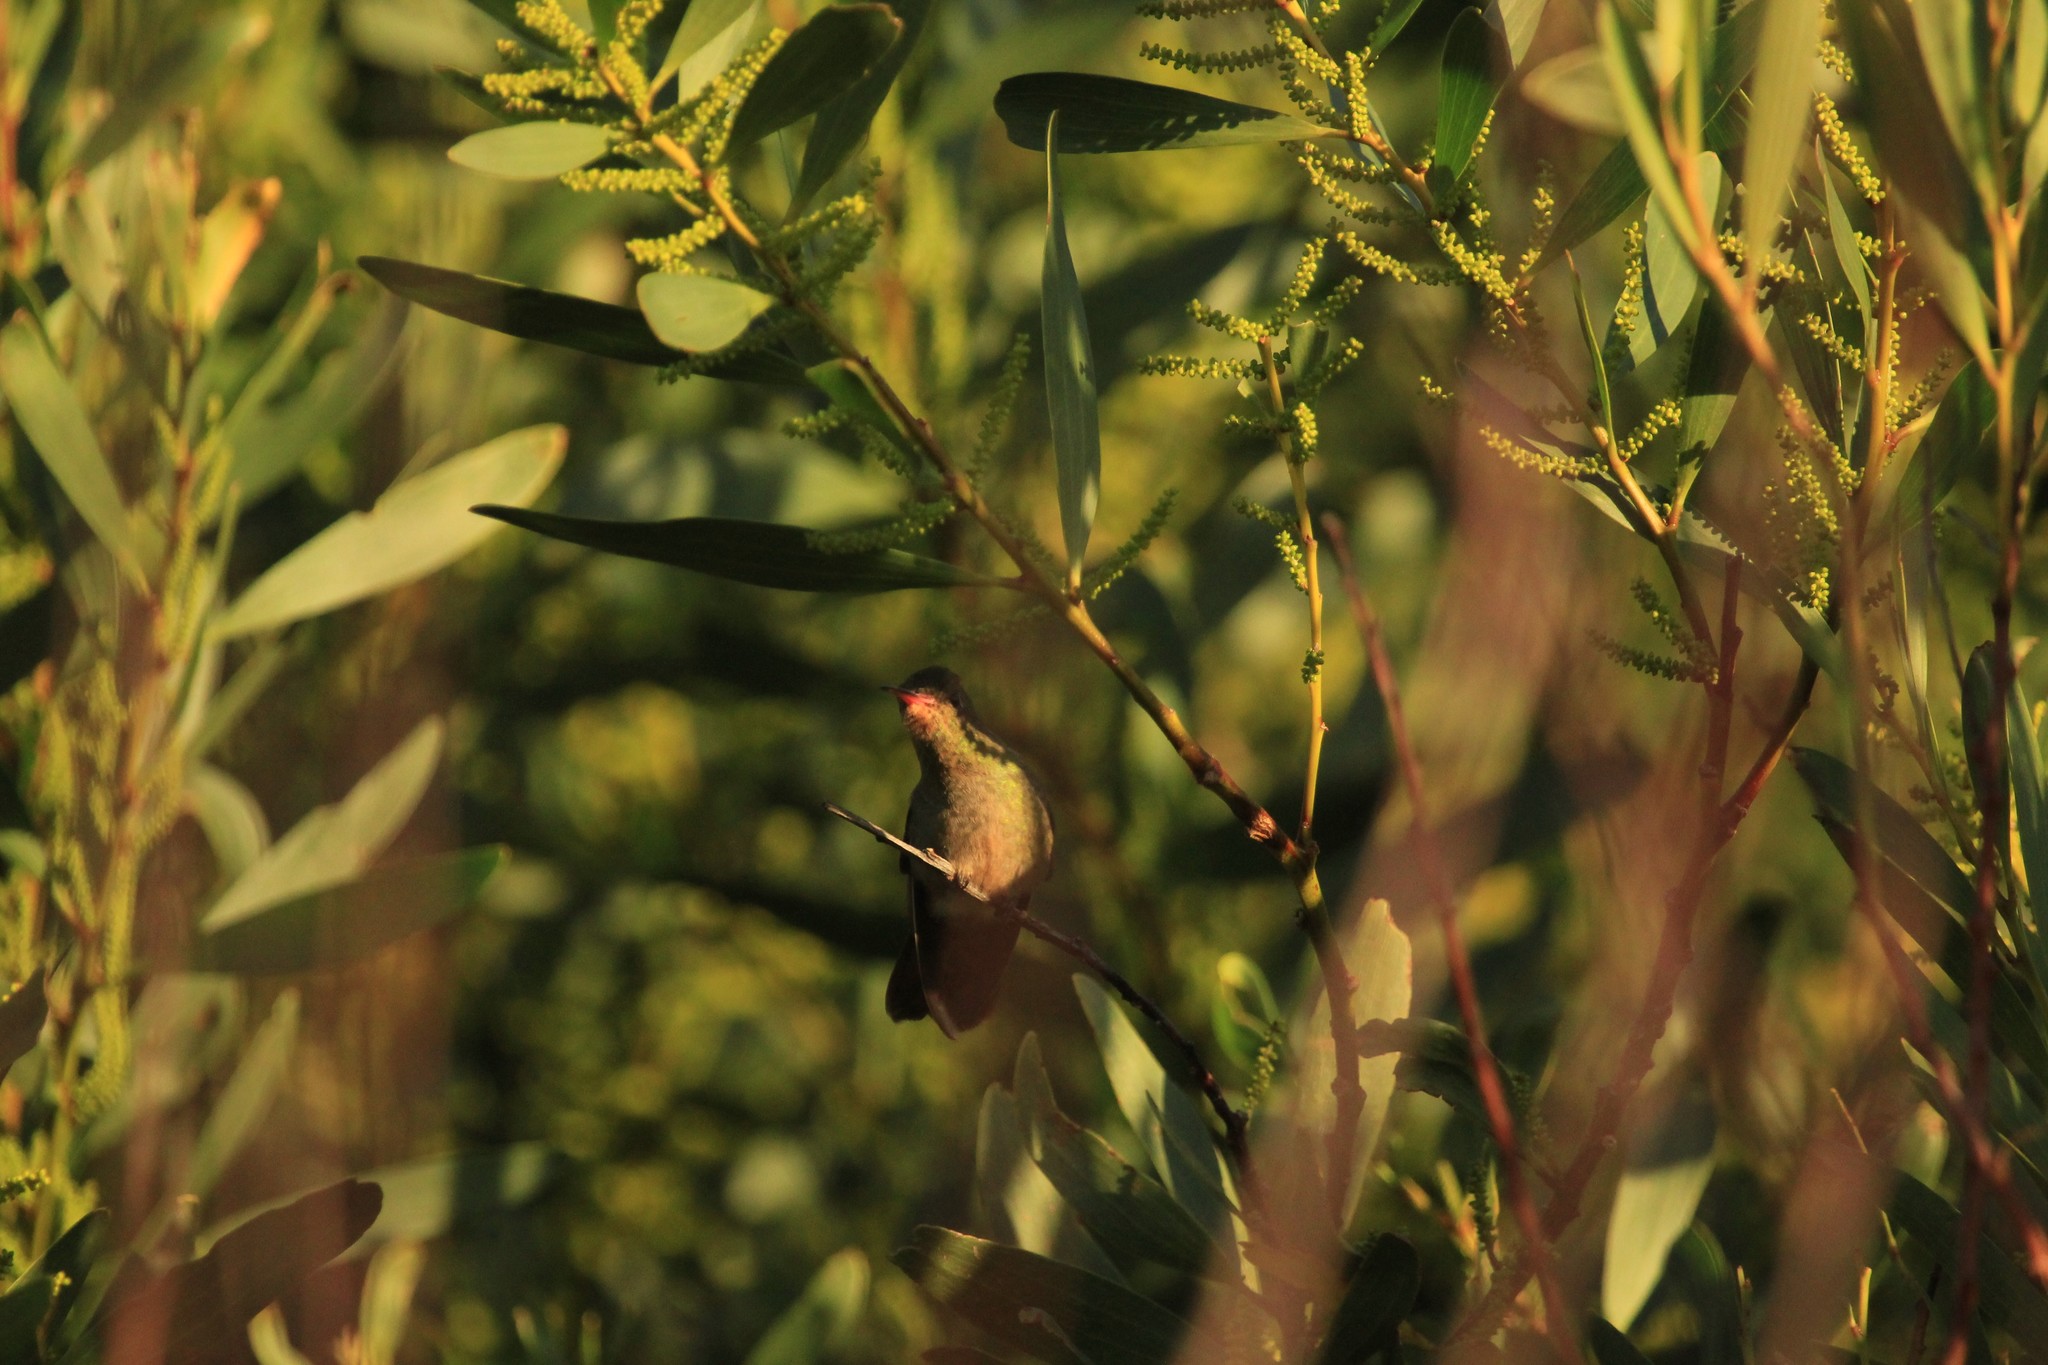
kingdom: Animalia
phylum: Chordata
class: Aves
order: Apodiformes
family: Trochilidae
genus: Hylocharis
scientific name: Hylocharis chrysura
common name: Gilded sapphire
